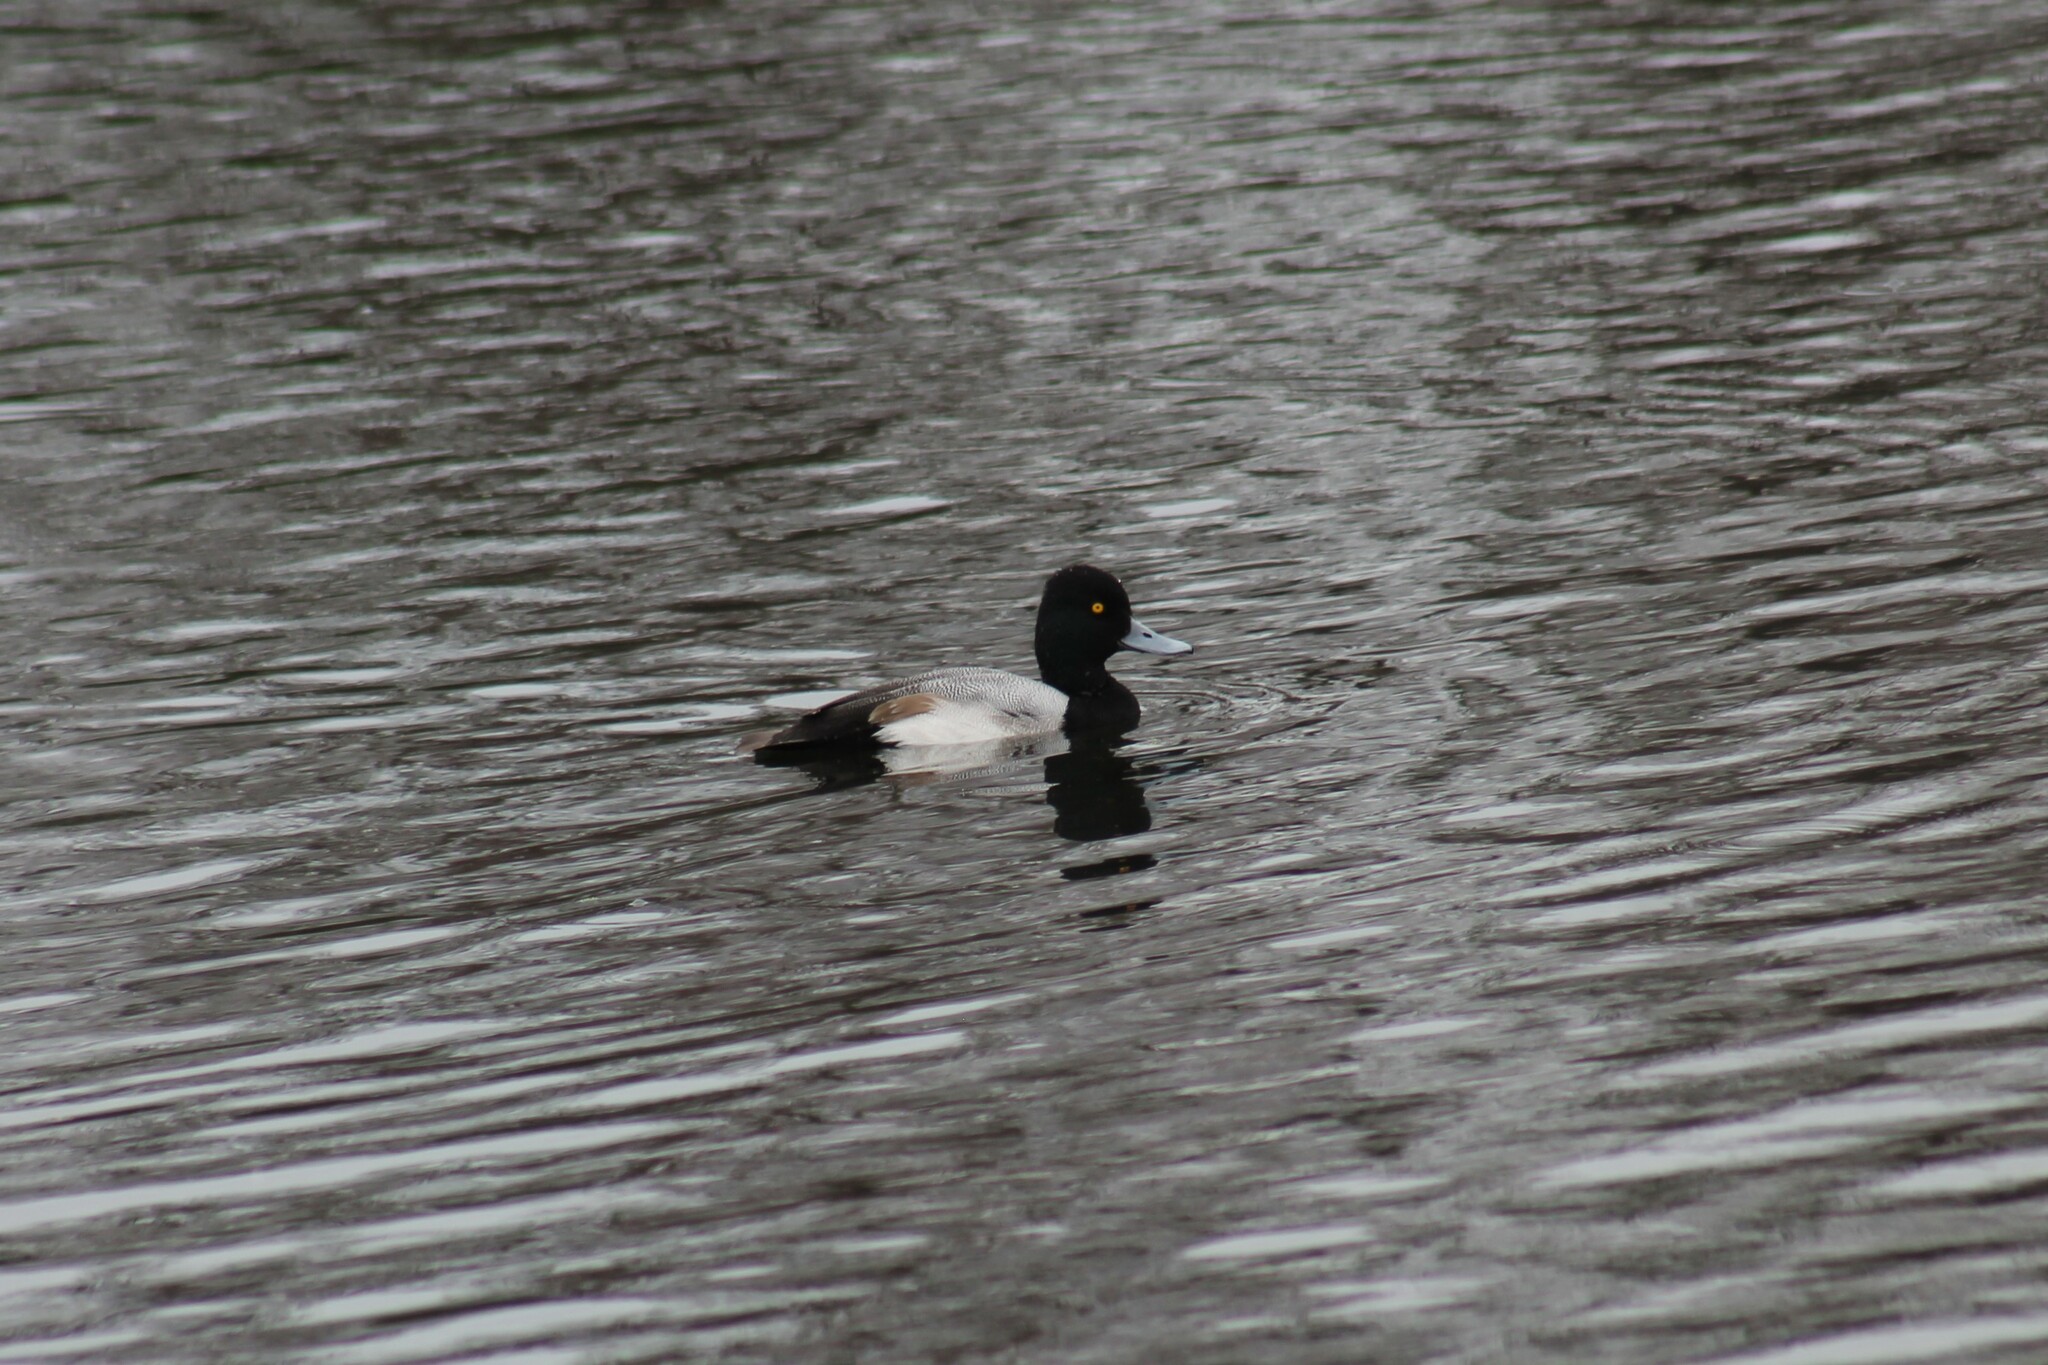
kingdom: Animalia
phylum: Chordata
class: Aves
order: Anseriformes
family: Anatidae
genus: Aythya
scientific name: Aythya affinis
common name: Lesser scaup
